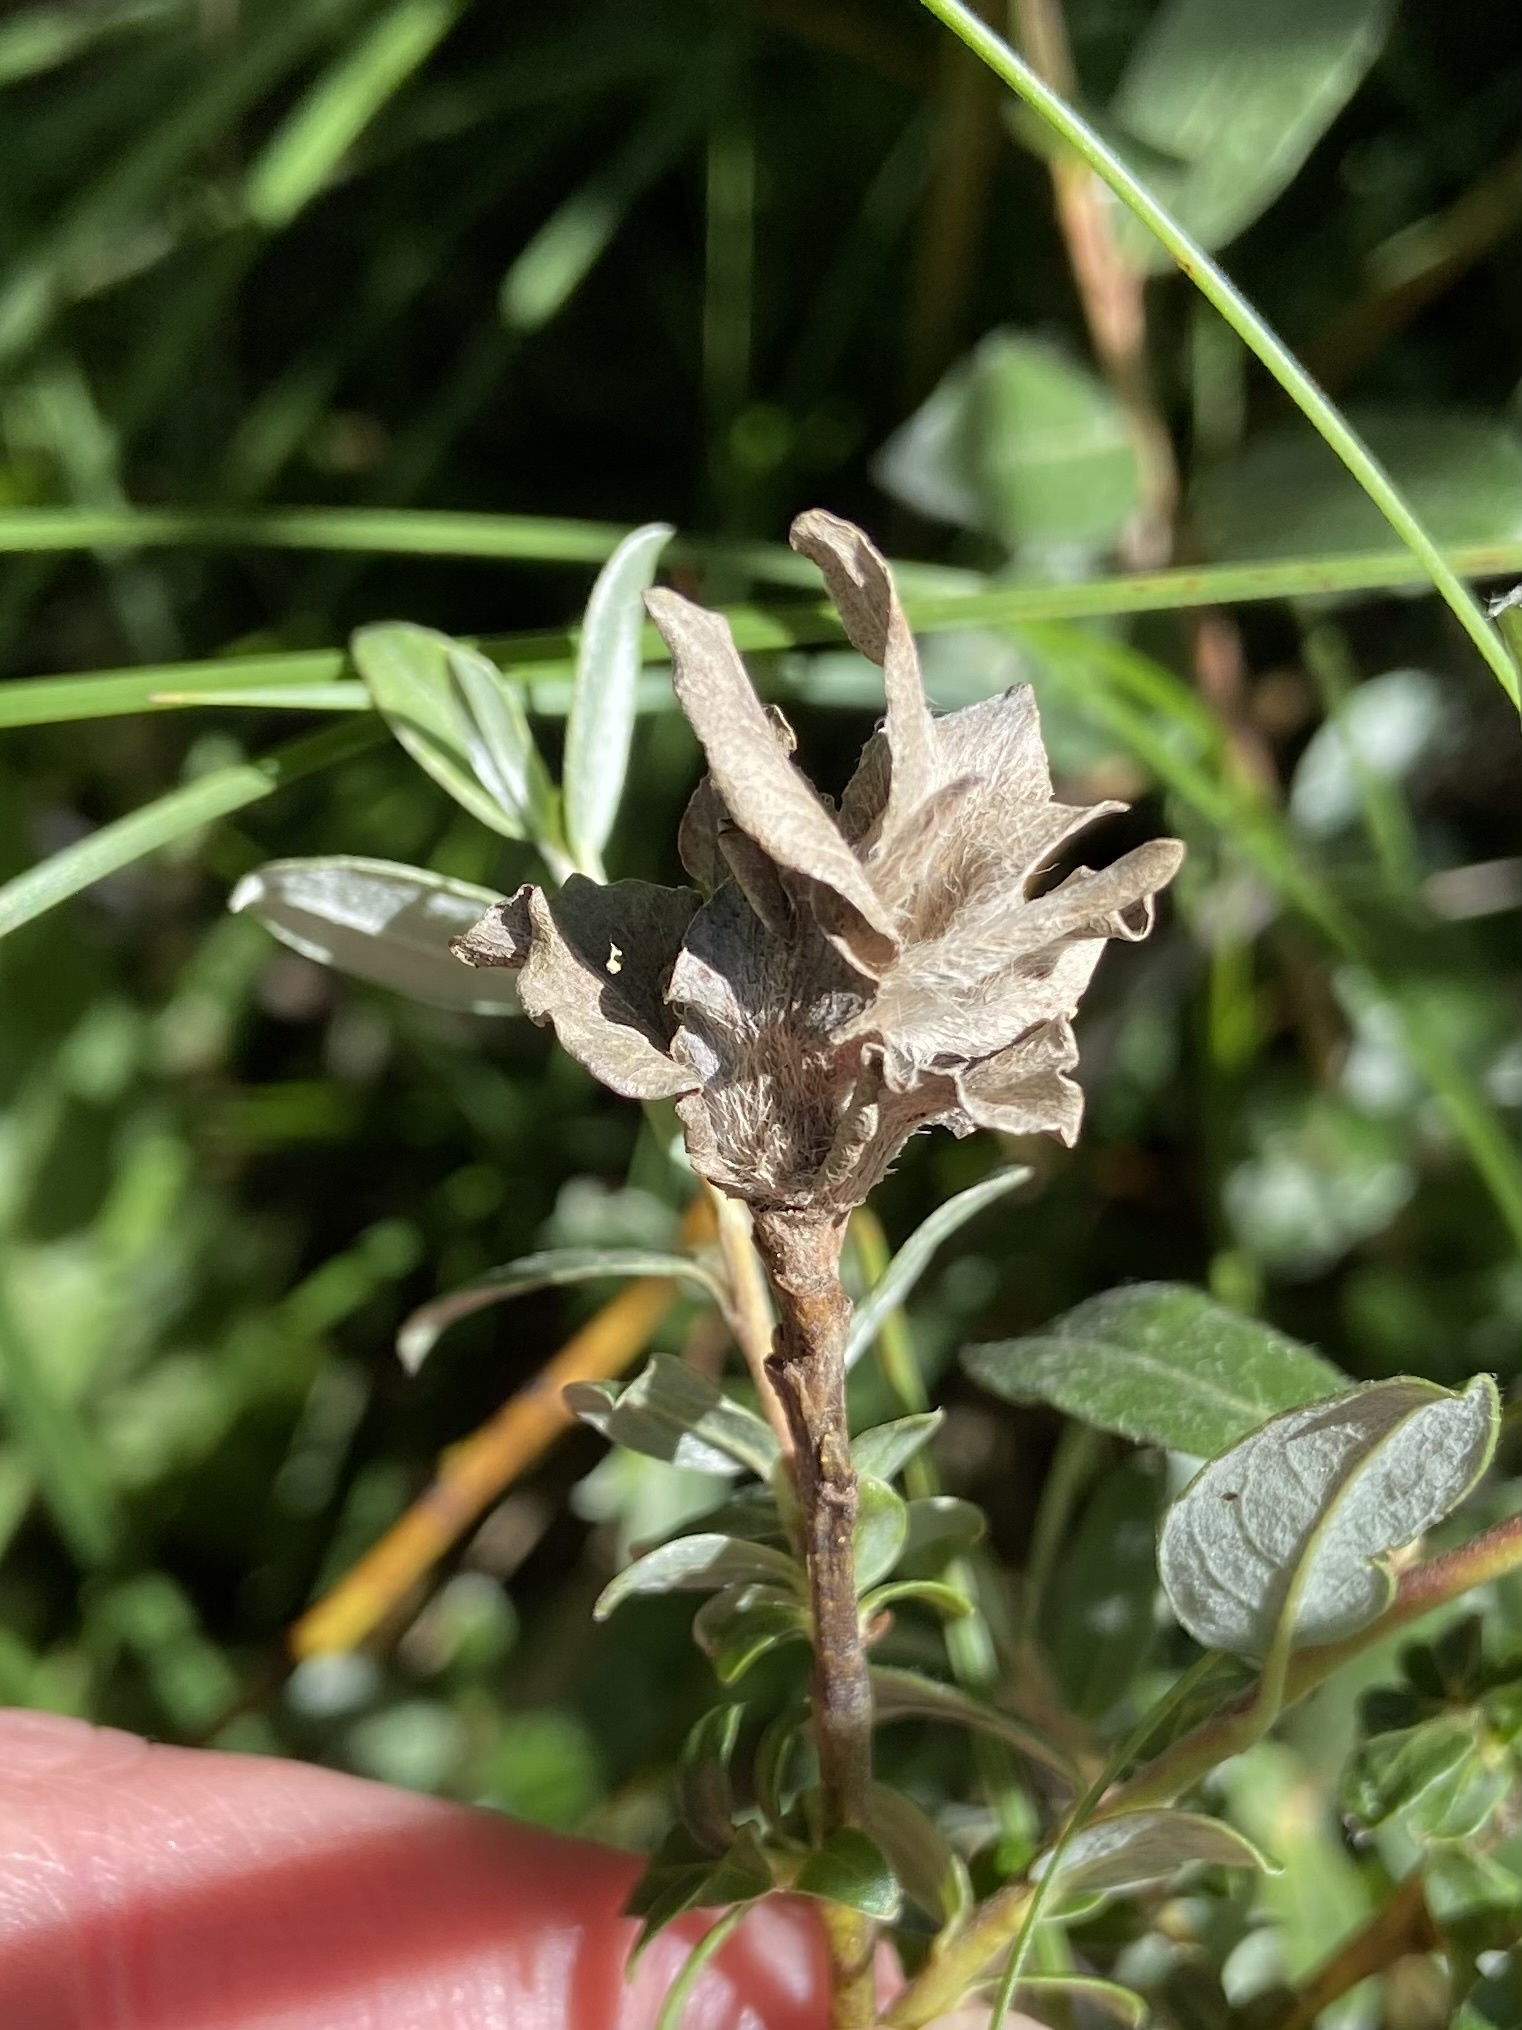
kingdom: Animalia
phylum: Arthropoda
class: Insecta
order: Diptera
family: Cecidomyiidae
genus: Rabdophaga
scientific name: Rabdophaga rosaria
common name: Willow rose gall midge
